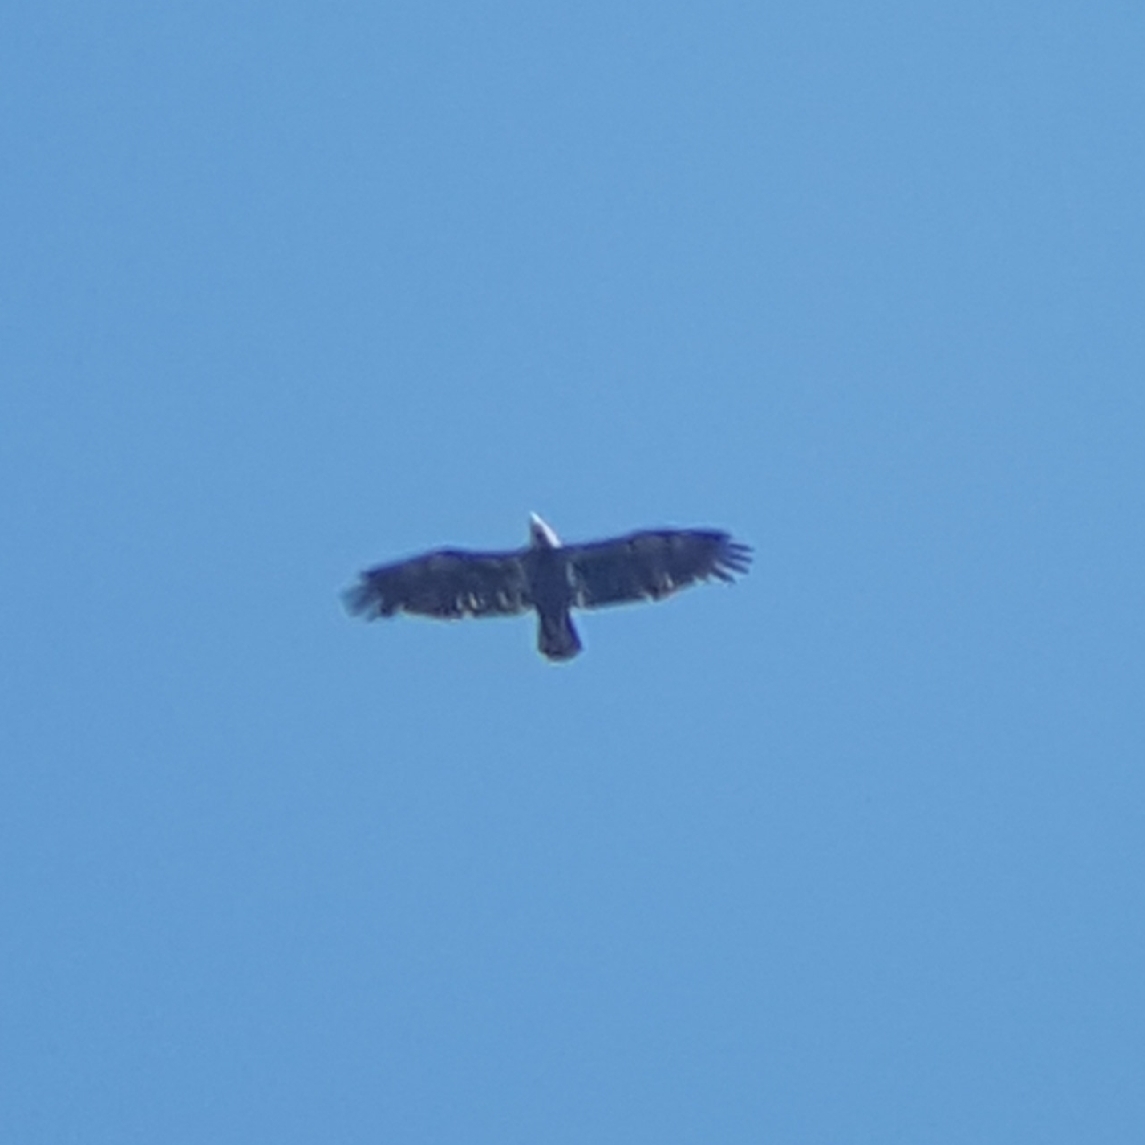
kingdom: Animalia
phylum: Chordata
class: Aves
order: Accipitriformes
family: Accipitridae
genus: Haliaeetus
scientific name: Haliaeetus leucocephalus
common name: Bald eagle
